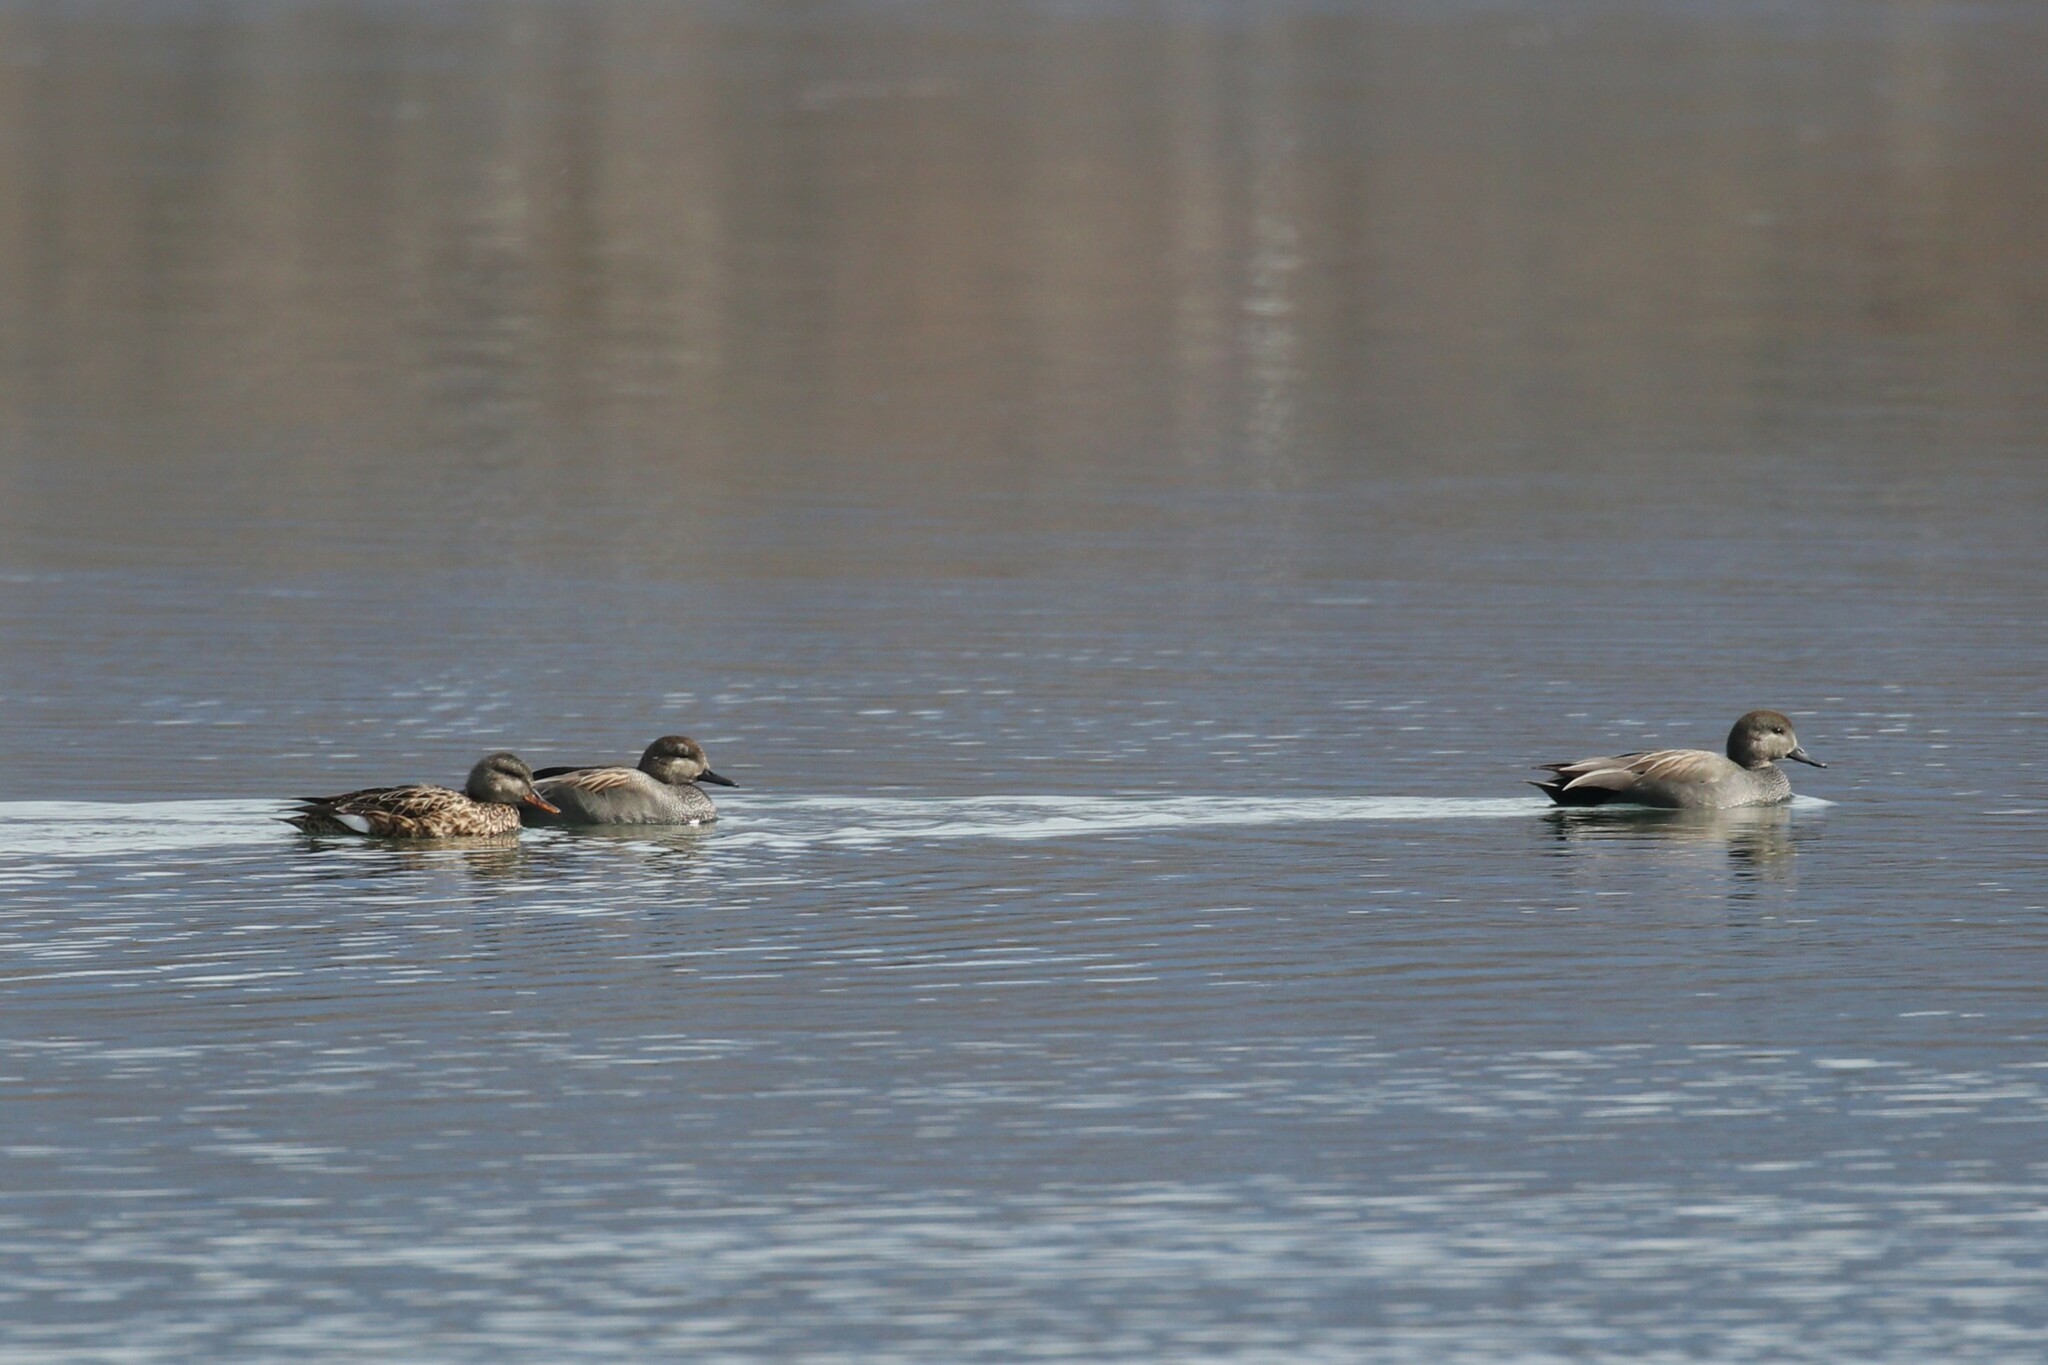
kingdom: Animalia
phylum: Chordata
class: Aves
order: Anseriformes
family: Anatidae
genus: Mareca
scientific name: Mareca strepera
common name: Gadwall
